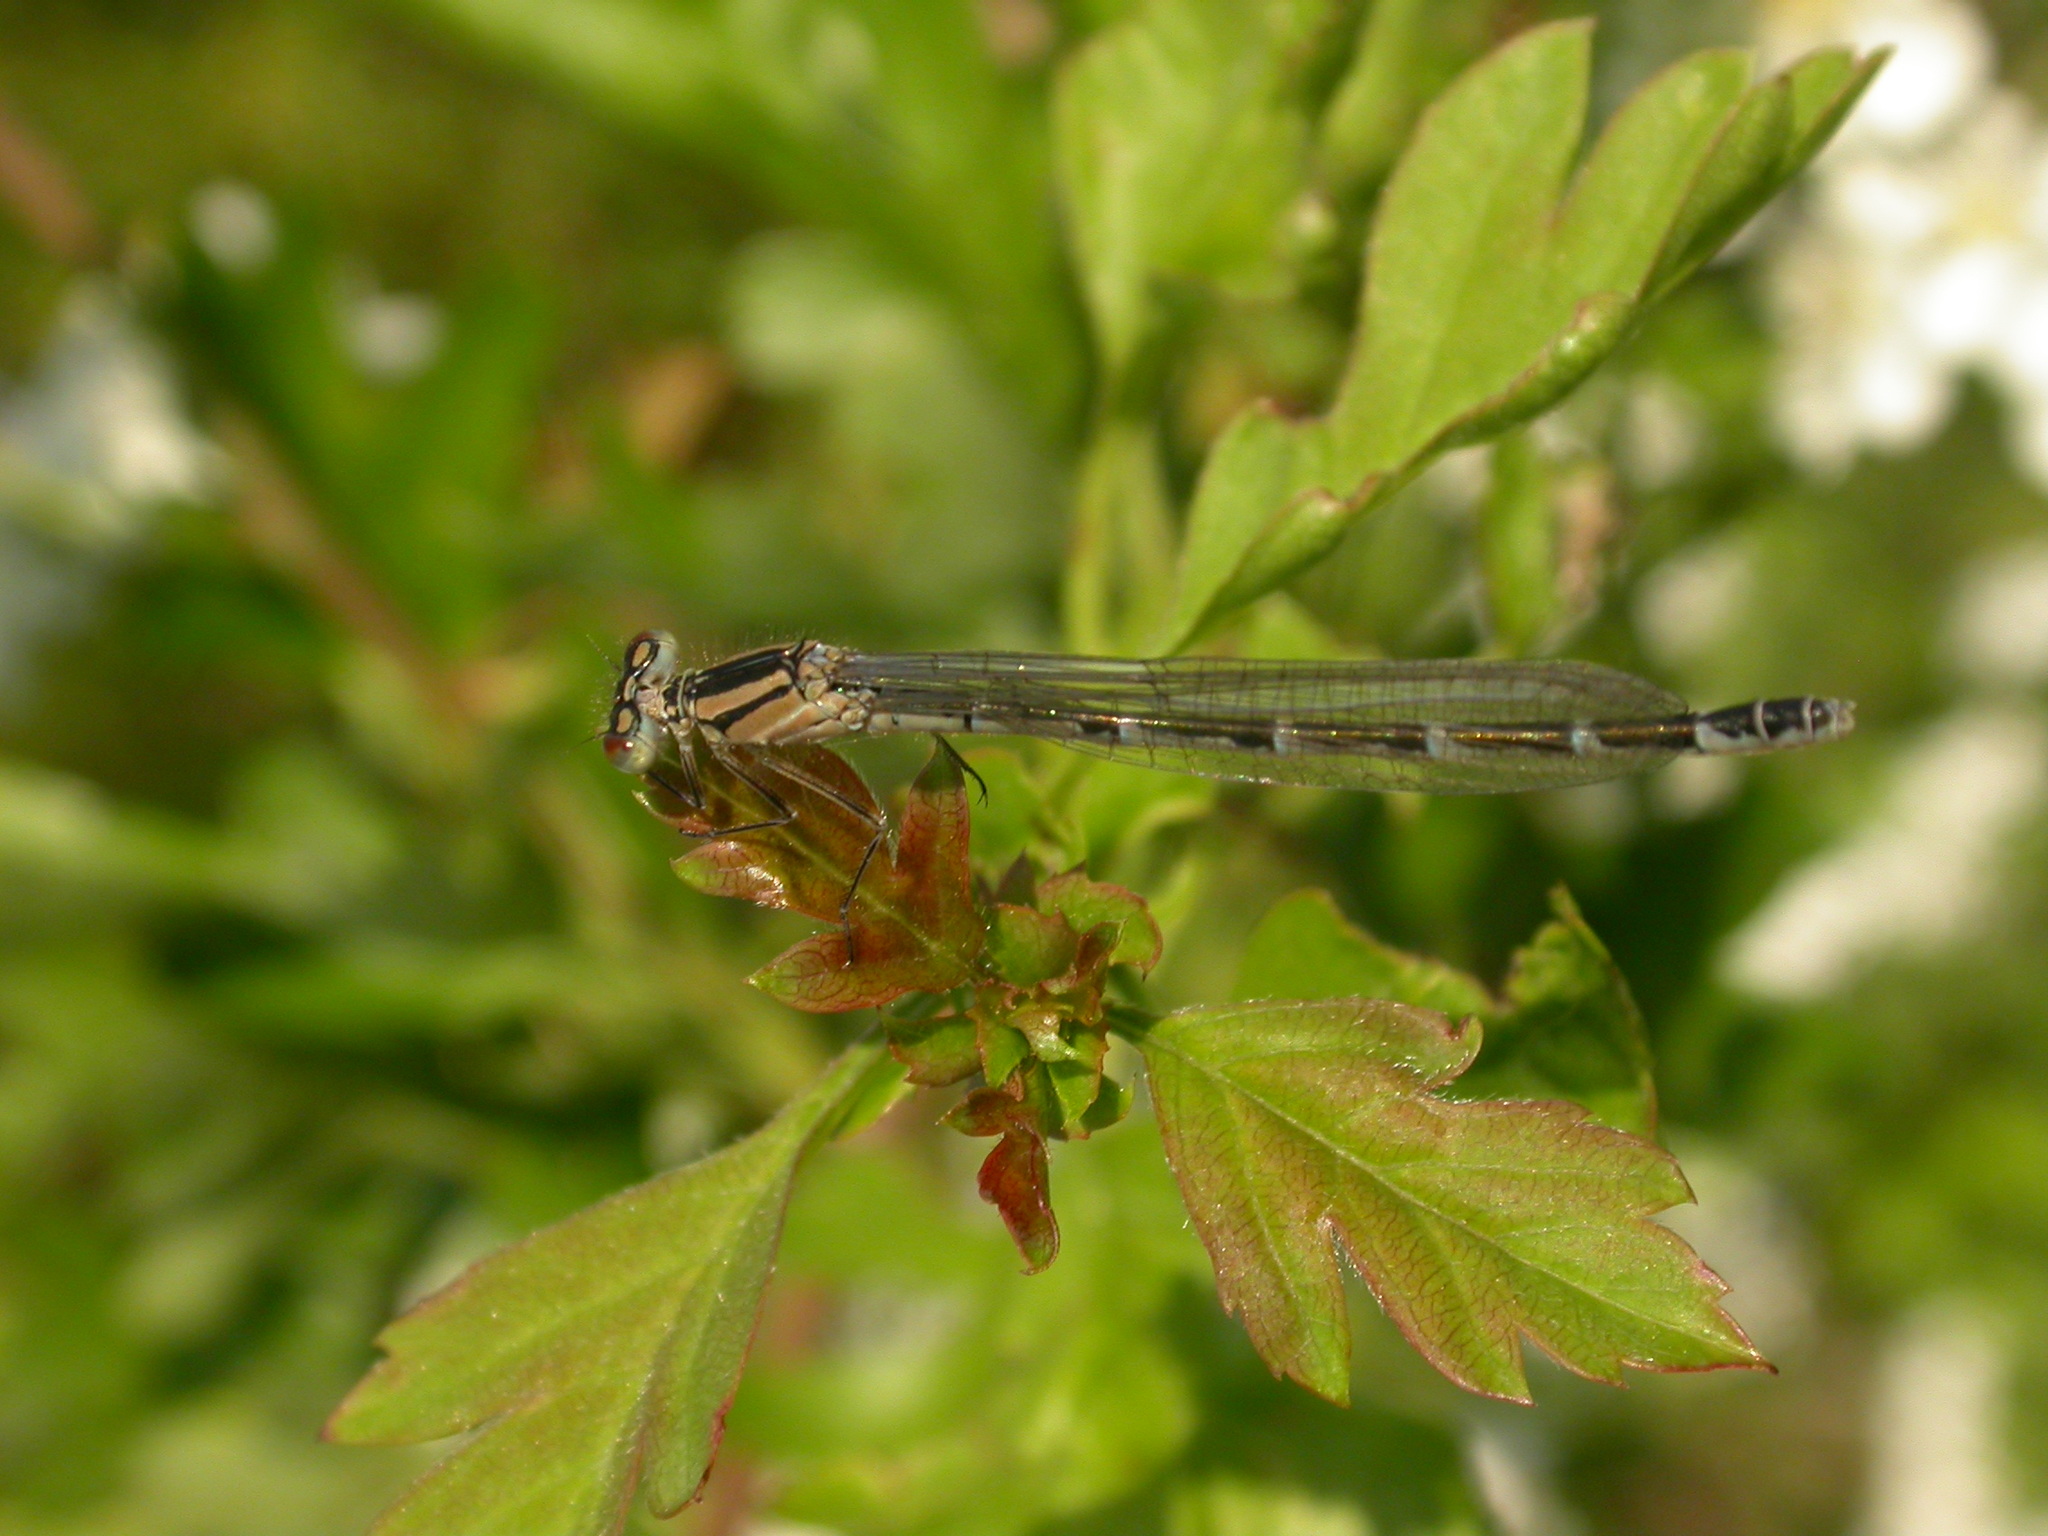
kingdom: Animalia
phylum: Arthropoda
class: Insecta
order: Odonata
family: Coenagrionidae
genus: Enallagma
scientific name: Enallagma cyathigerum
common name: Common blue damselfly
